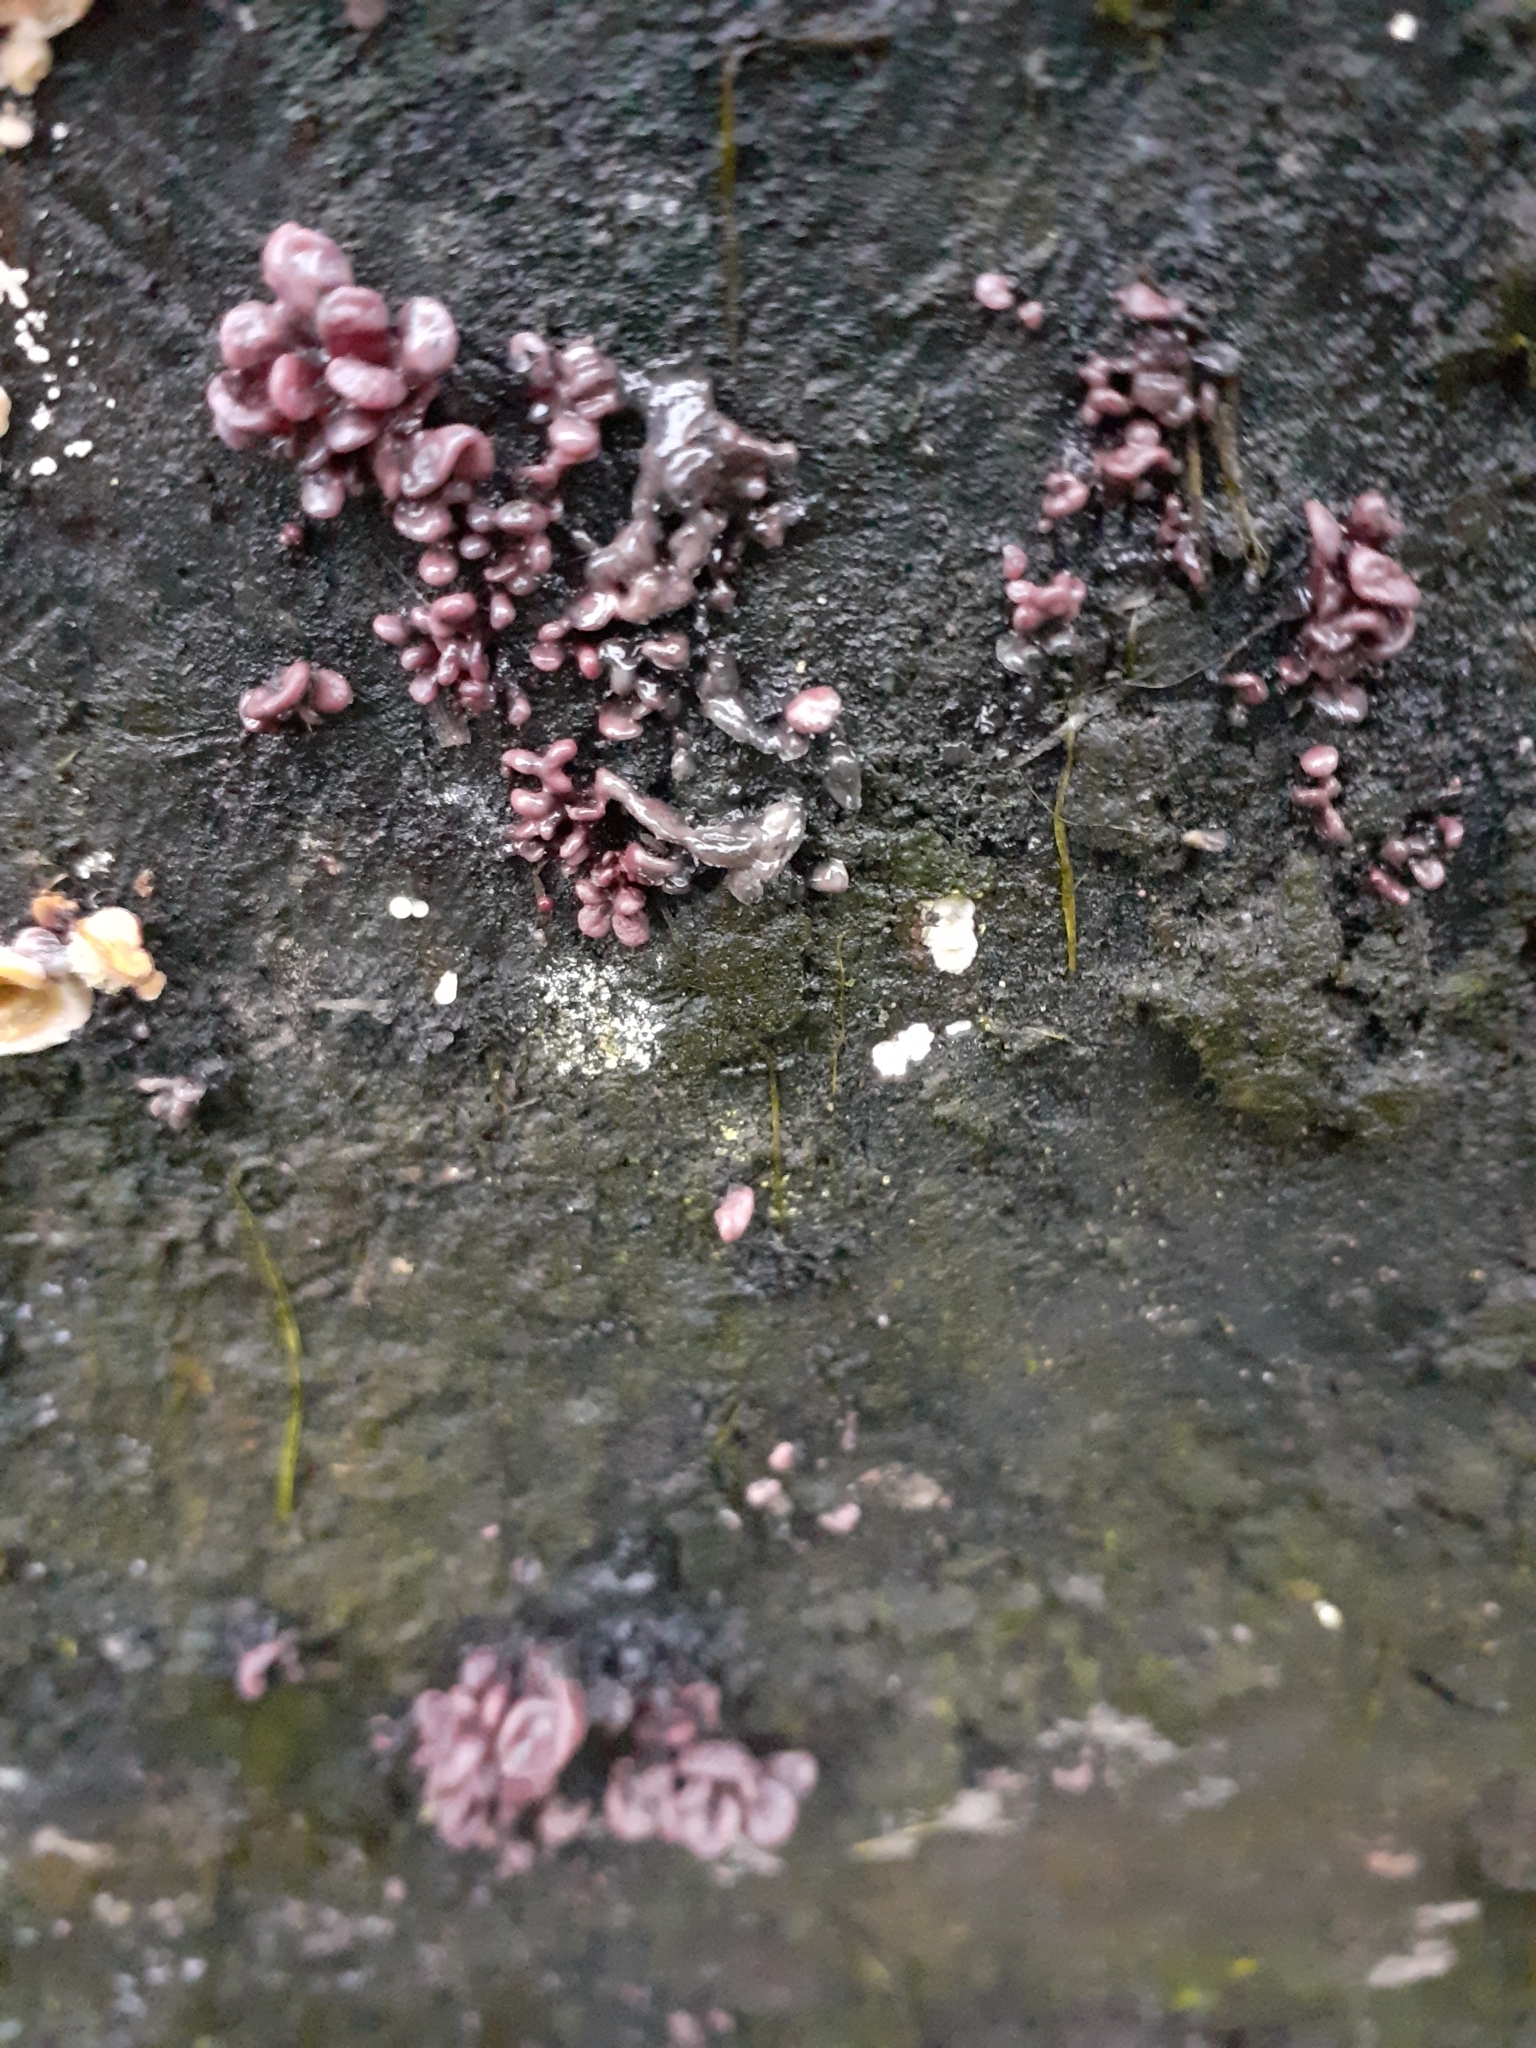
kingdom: Fungi
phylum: Ascomycota
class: Leotiomycetes
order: Helotiales
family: Gelatinodiscaceae
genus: Ascocoryne
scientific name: Ascocoryne sarcoides
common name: Purple jellydisc
